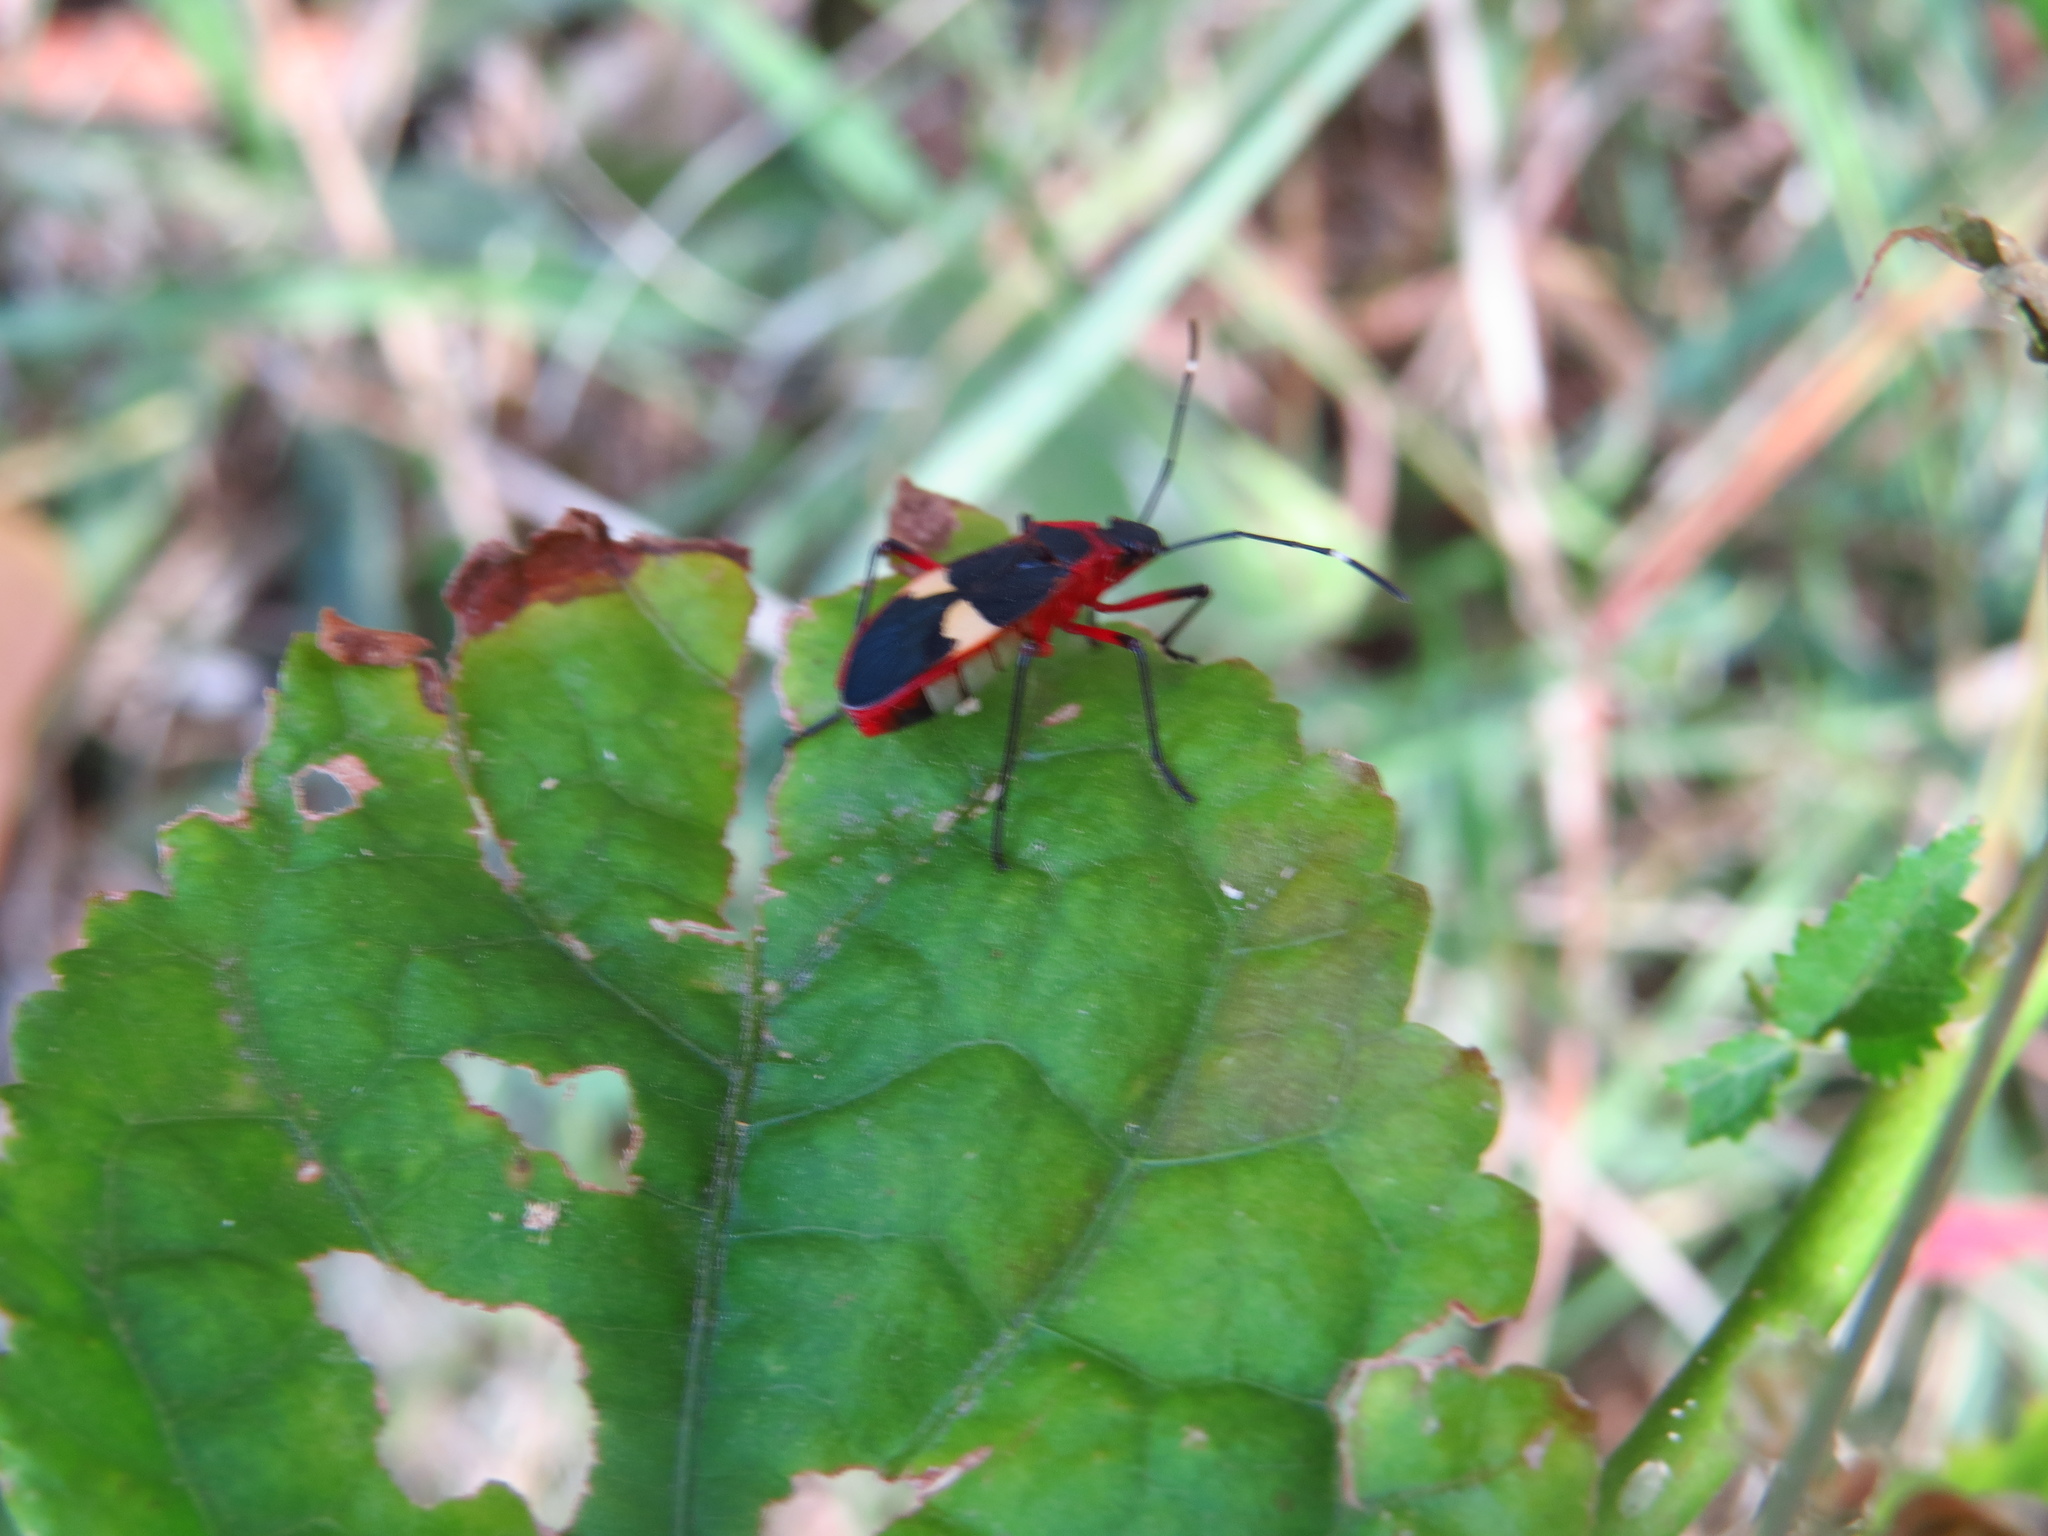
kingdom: Animalia
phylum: Arthropoda
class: Insecta
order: Hemiptera
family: Pyrrhocoridae
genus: Dysdercus
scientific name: Dysdercus albofasciatus
